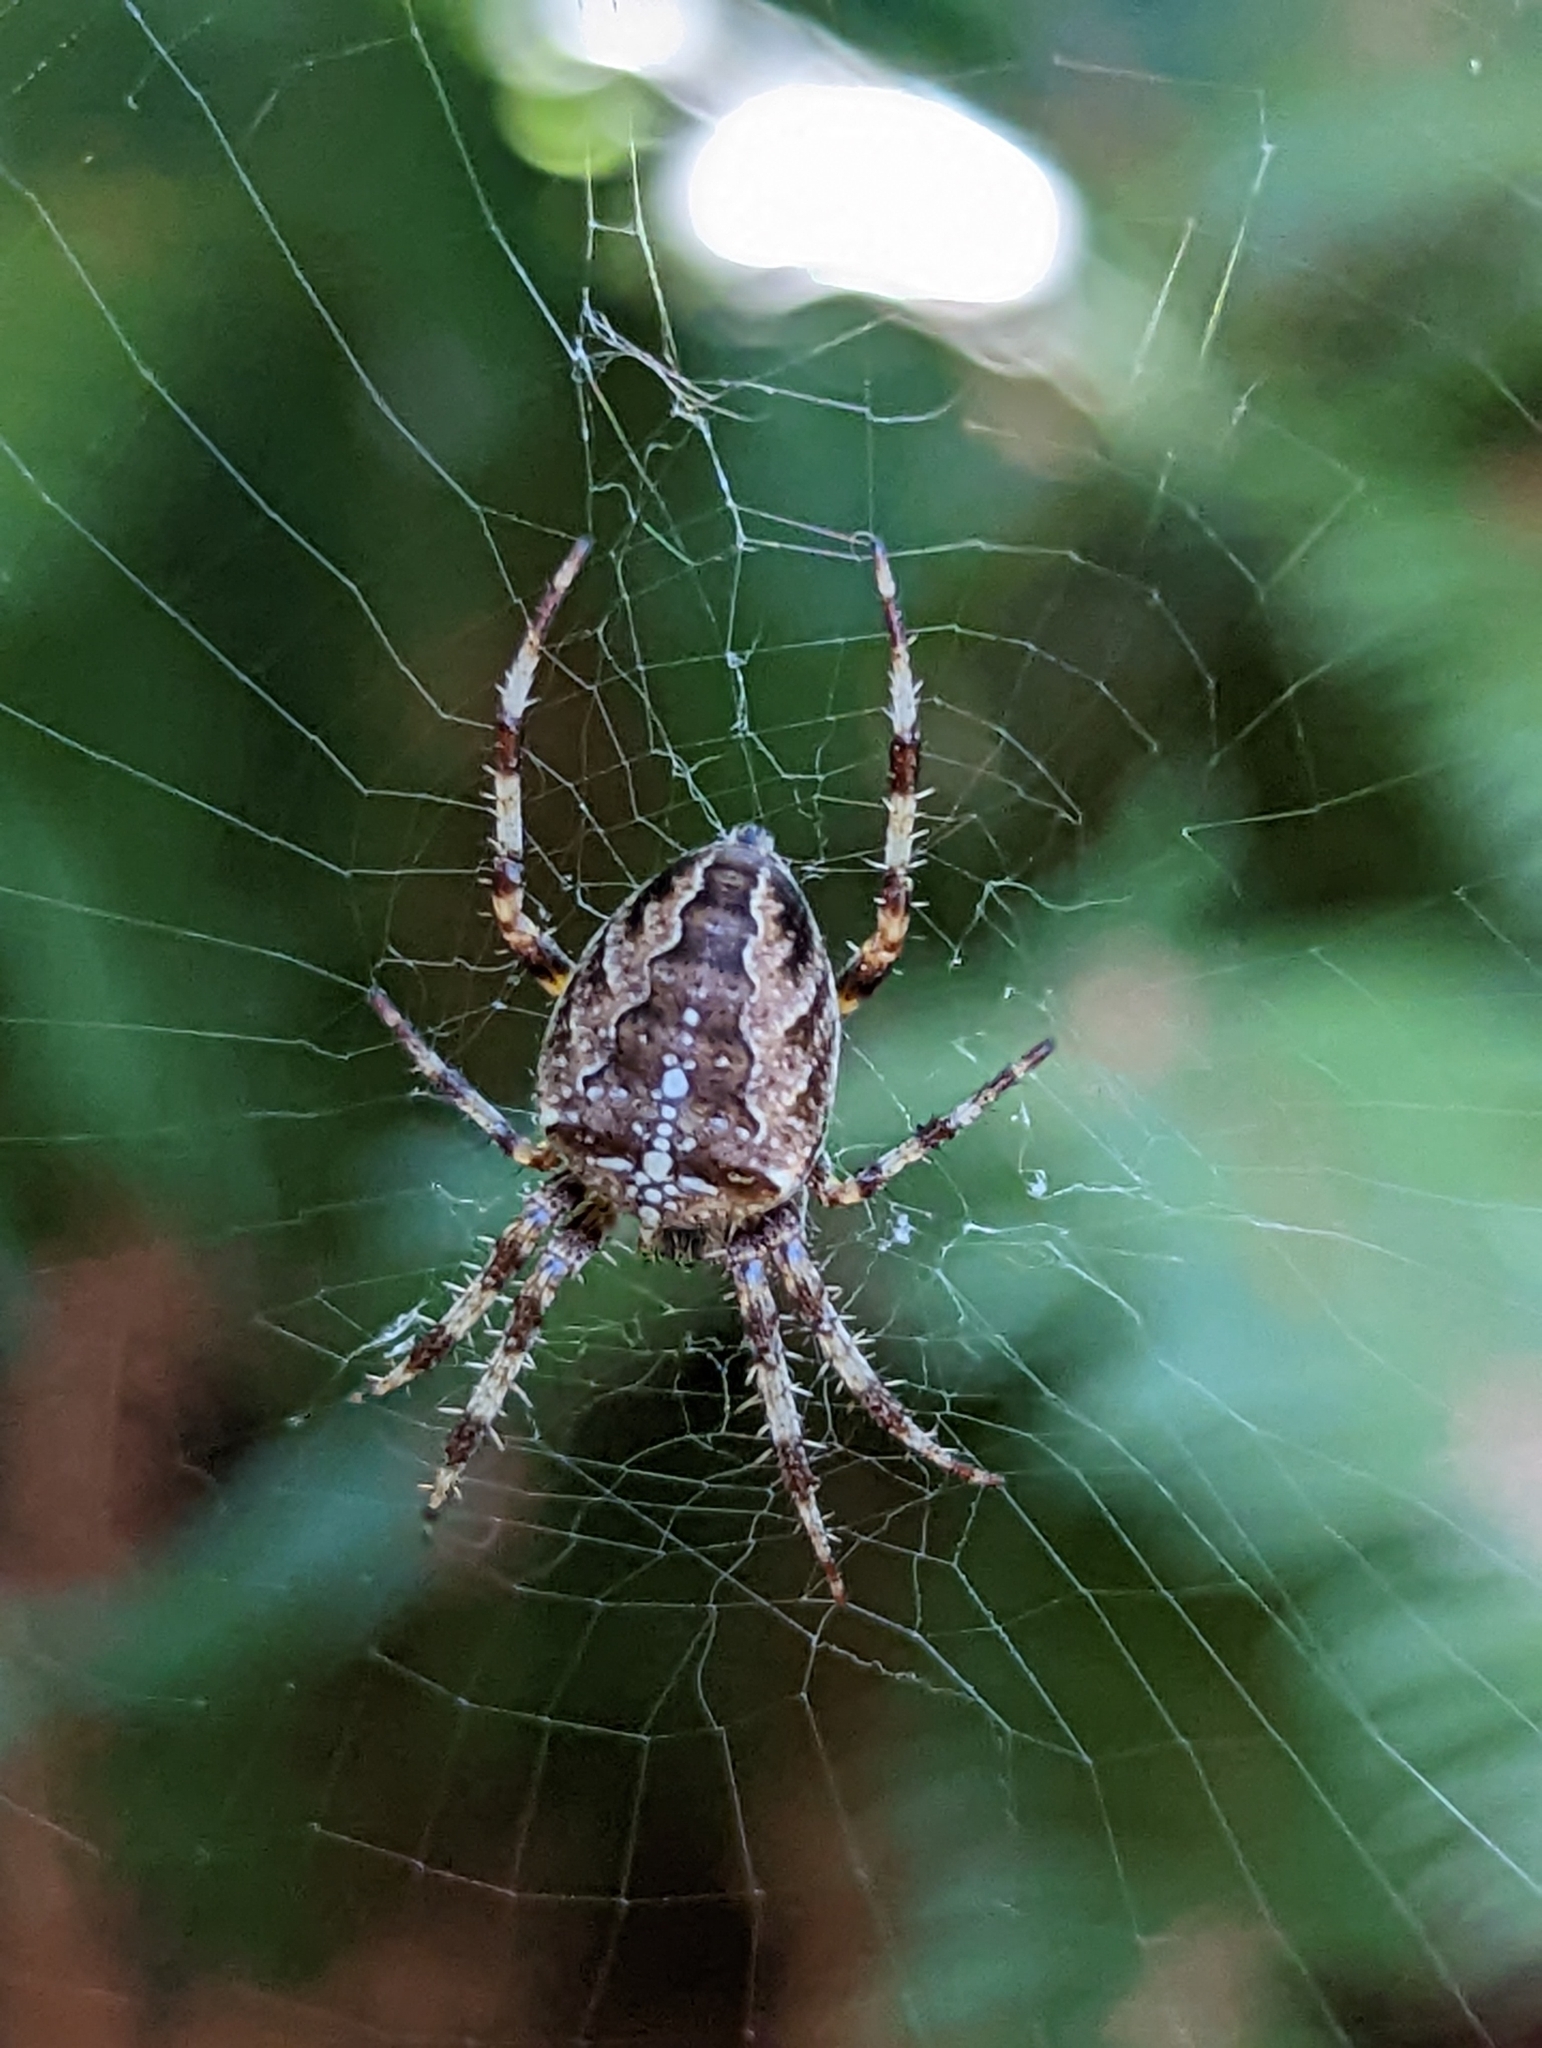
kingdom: Animalia
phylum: Arthropoda
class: Arachnida
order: Araneae
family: Araneidae
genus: Araneus
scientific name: Araneus diadematus
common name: Cross orbweaver
